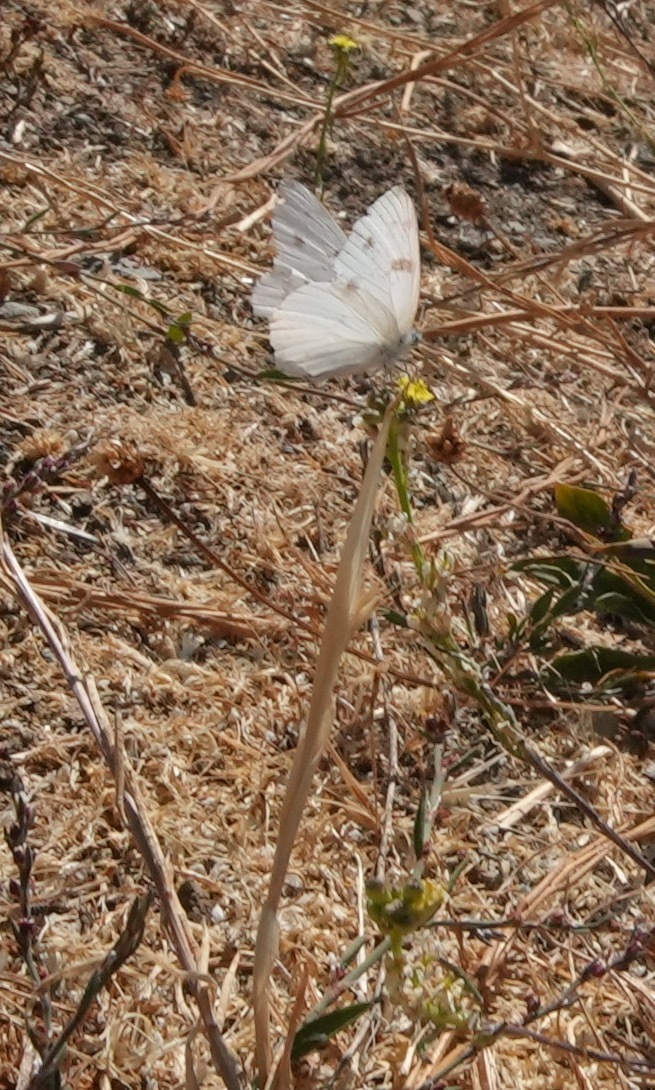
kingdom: Animalia
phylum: Arthropoda
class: Insecta
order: Lepidoptera
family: Pieridae
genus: Pontia
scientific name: Pontia protodice
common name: Checkered white
